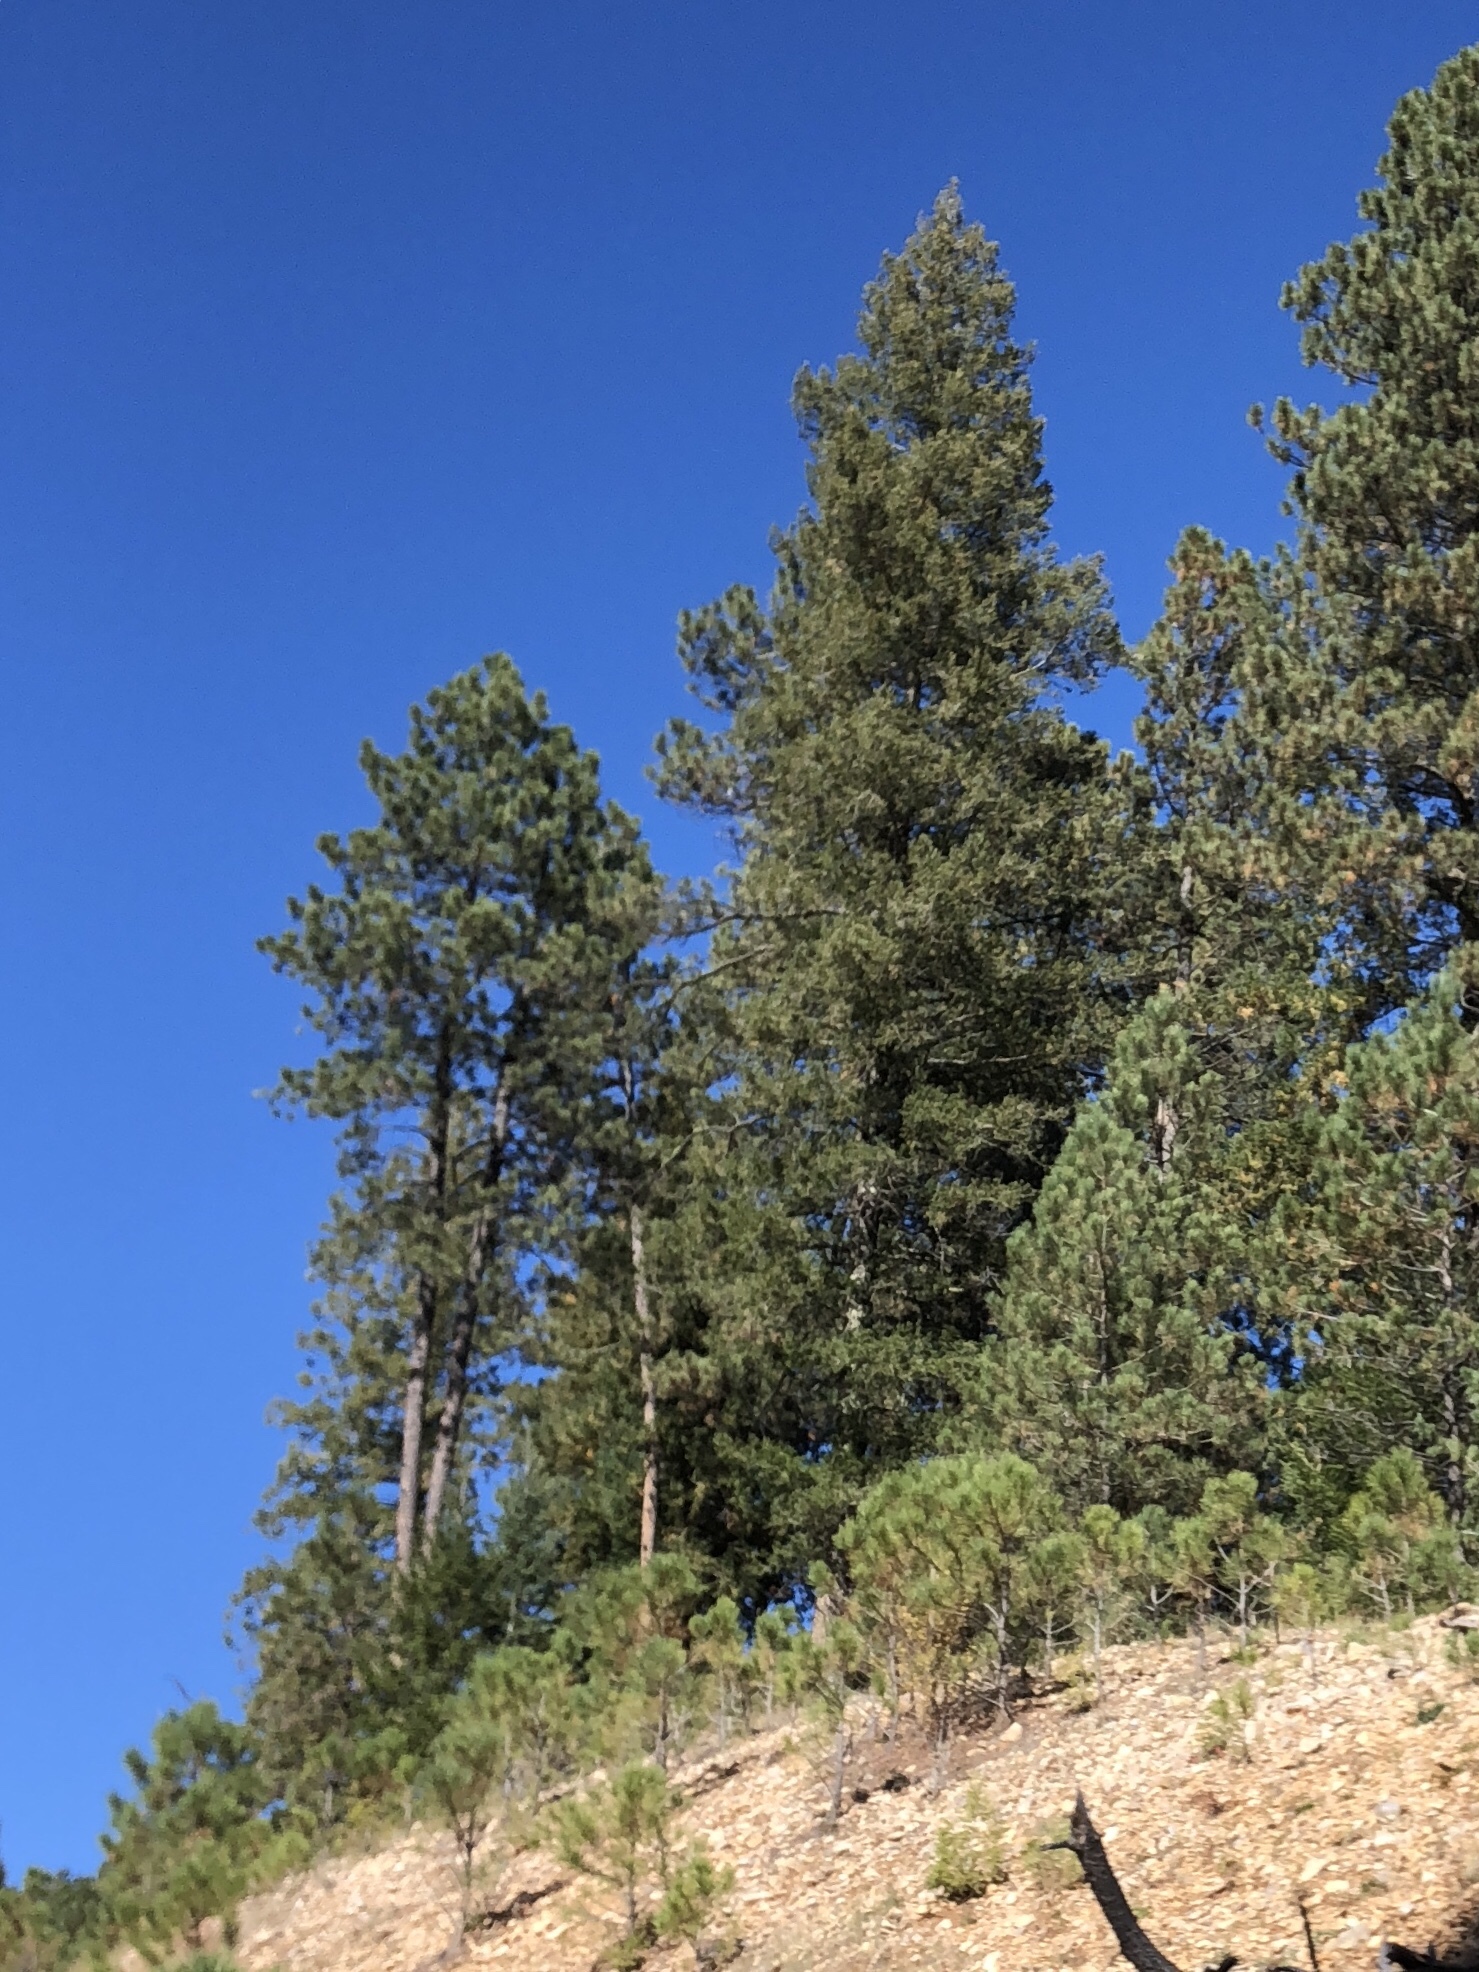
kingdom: Plantae
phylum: Tracheophyta
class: Pinopsida
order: Pinales
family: Pinaceae
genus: Pinus
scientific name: Pinus ponderosa
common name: Western yellow-pine
